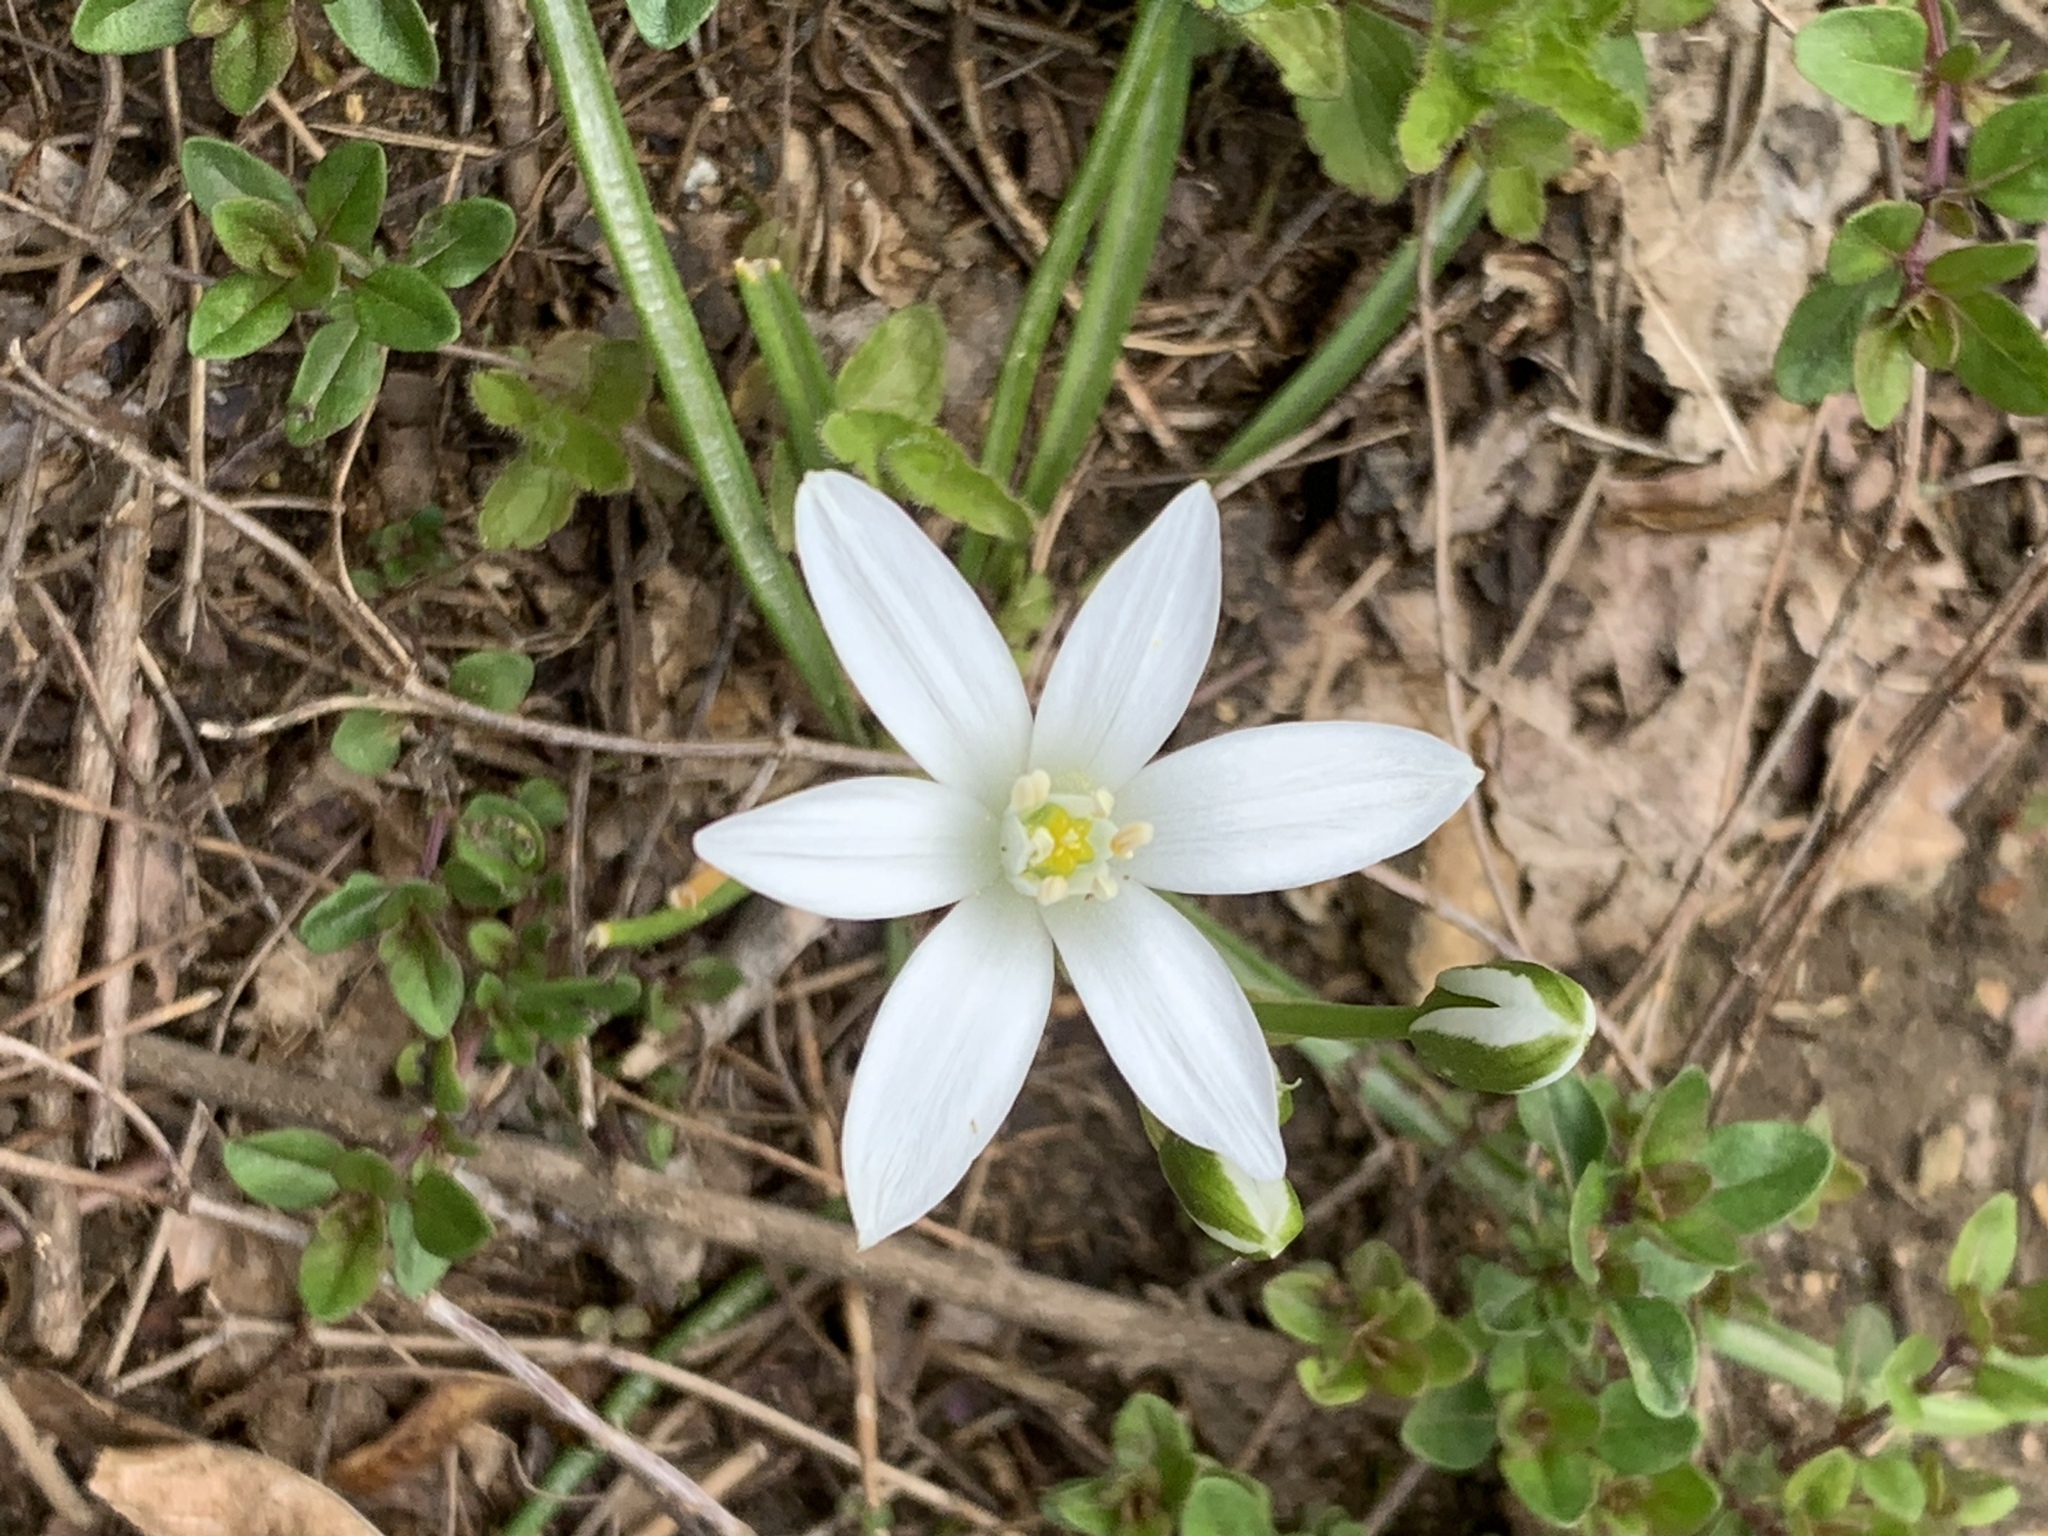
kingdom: Plantae
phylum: Tracheophyta
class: Liliopsida
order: Asparagales
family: Asparagaceae
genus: Ornithogalum
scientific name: Ornithogalum umbellatum
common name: Garden star-of-bethlehem
